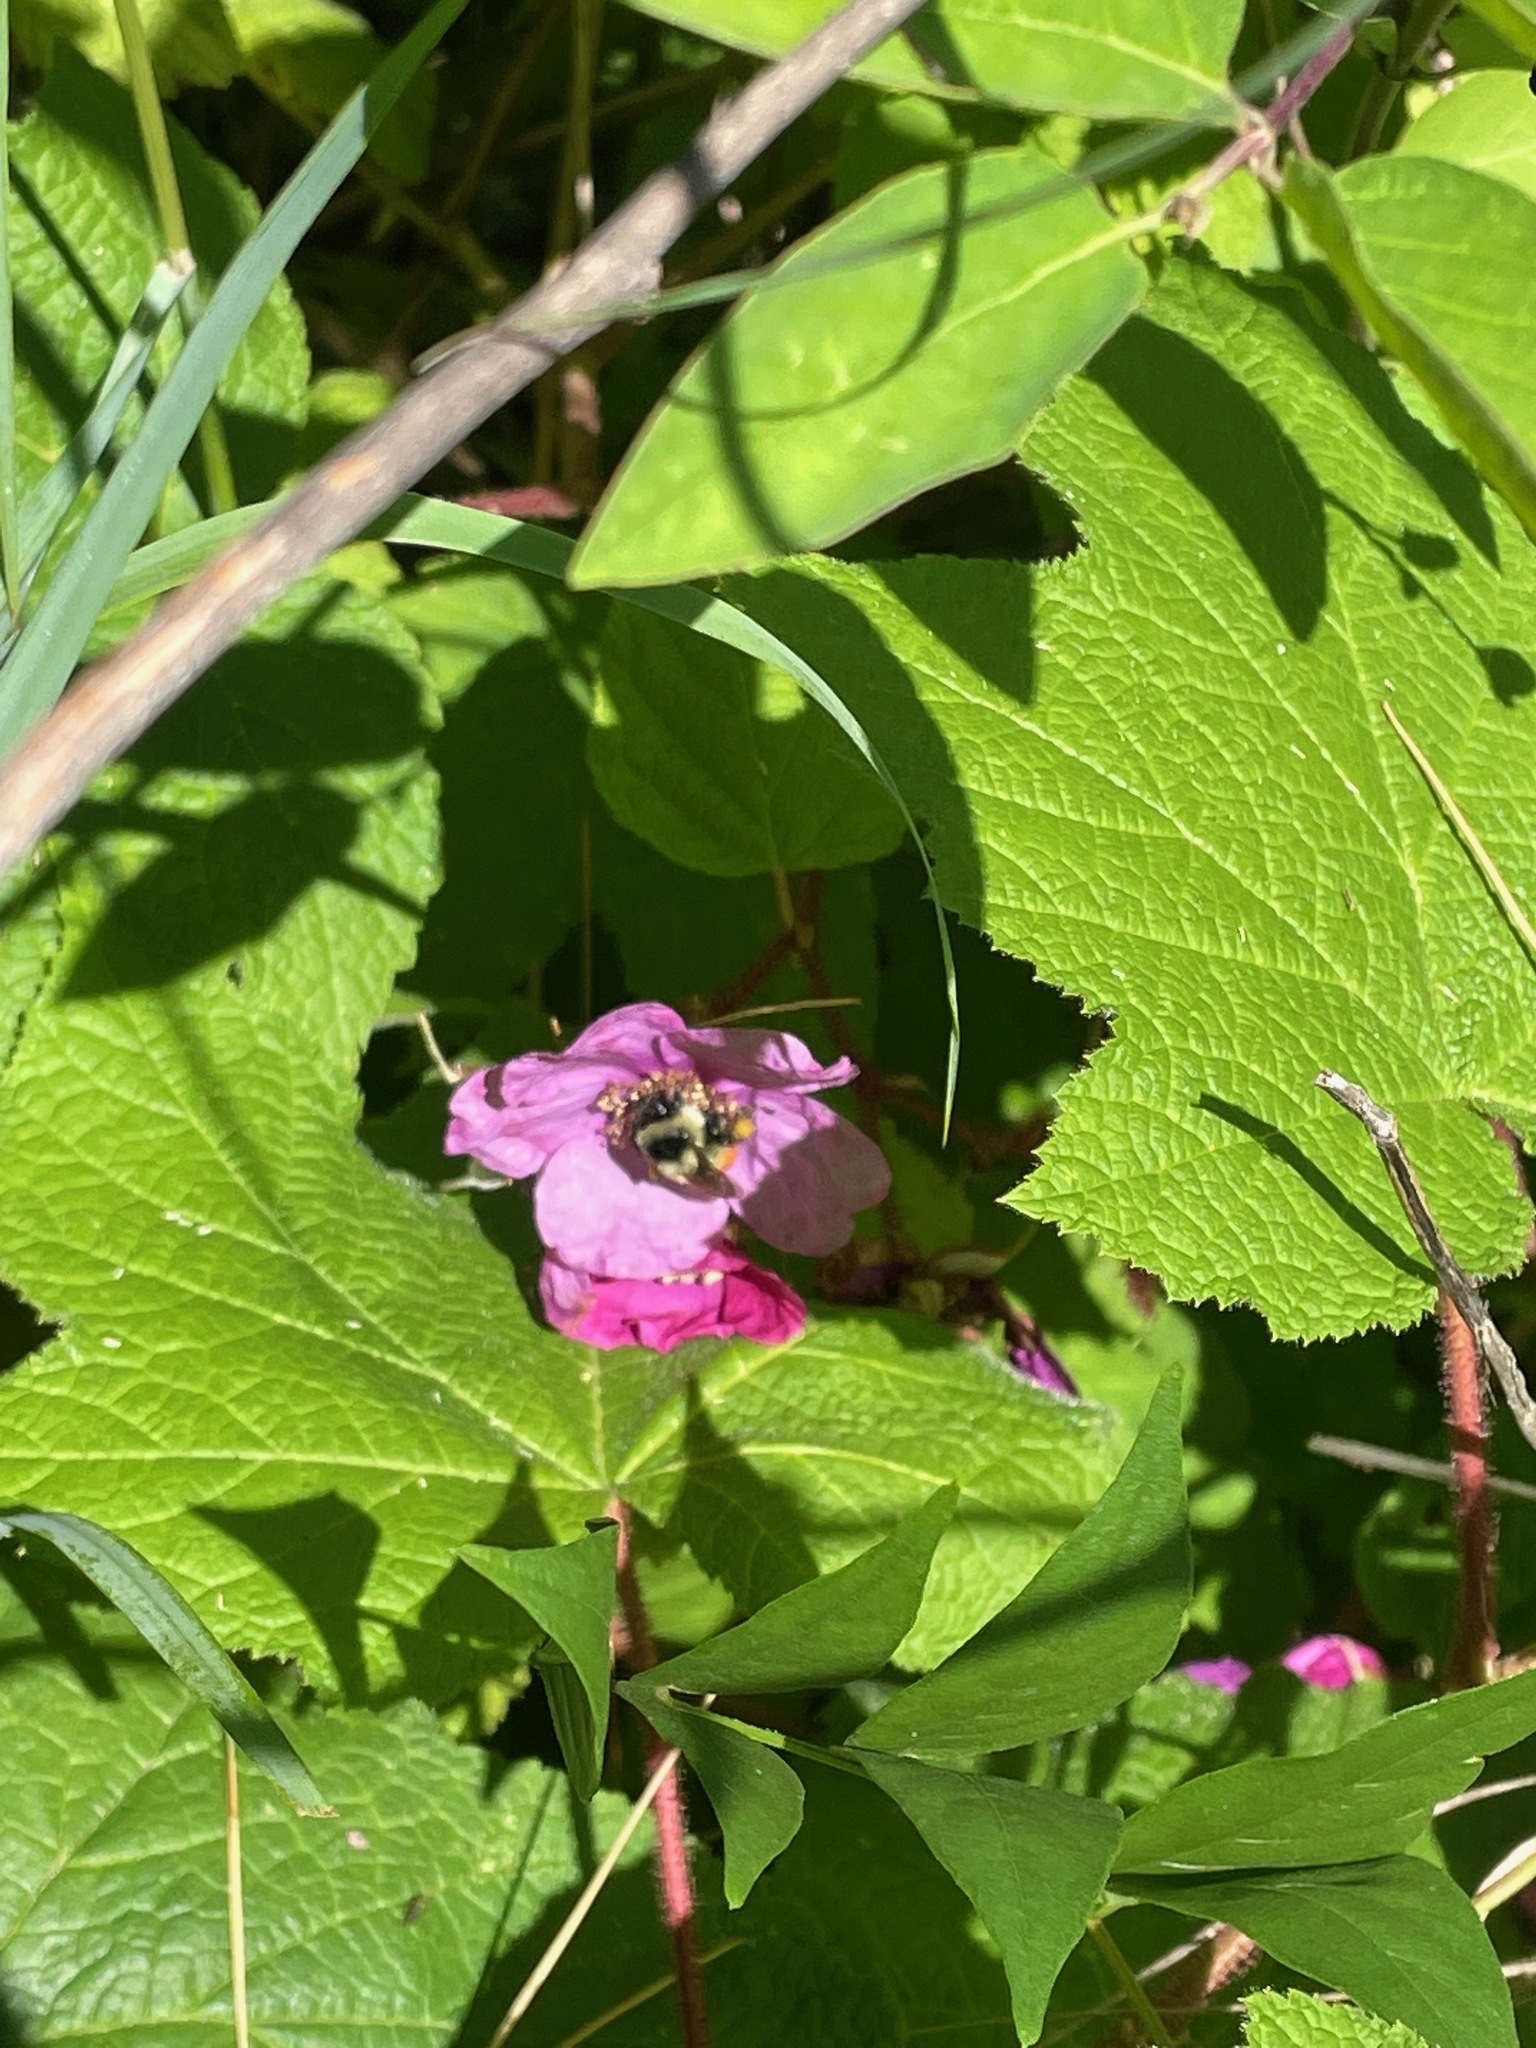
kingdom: Plantae
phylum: Tracheophyta
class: Magnoliopsida
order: Rosales
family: Rosaceae
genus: Rubus
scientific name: Rubus odoratus
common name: Purple-flowered raspberry
